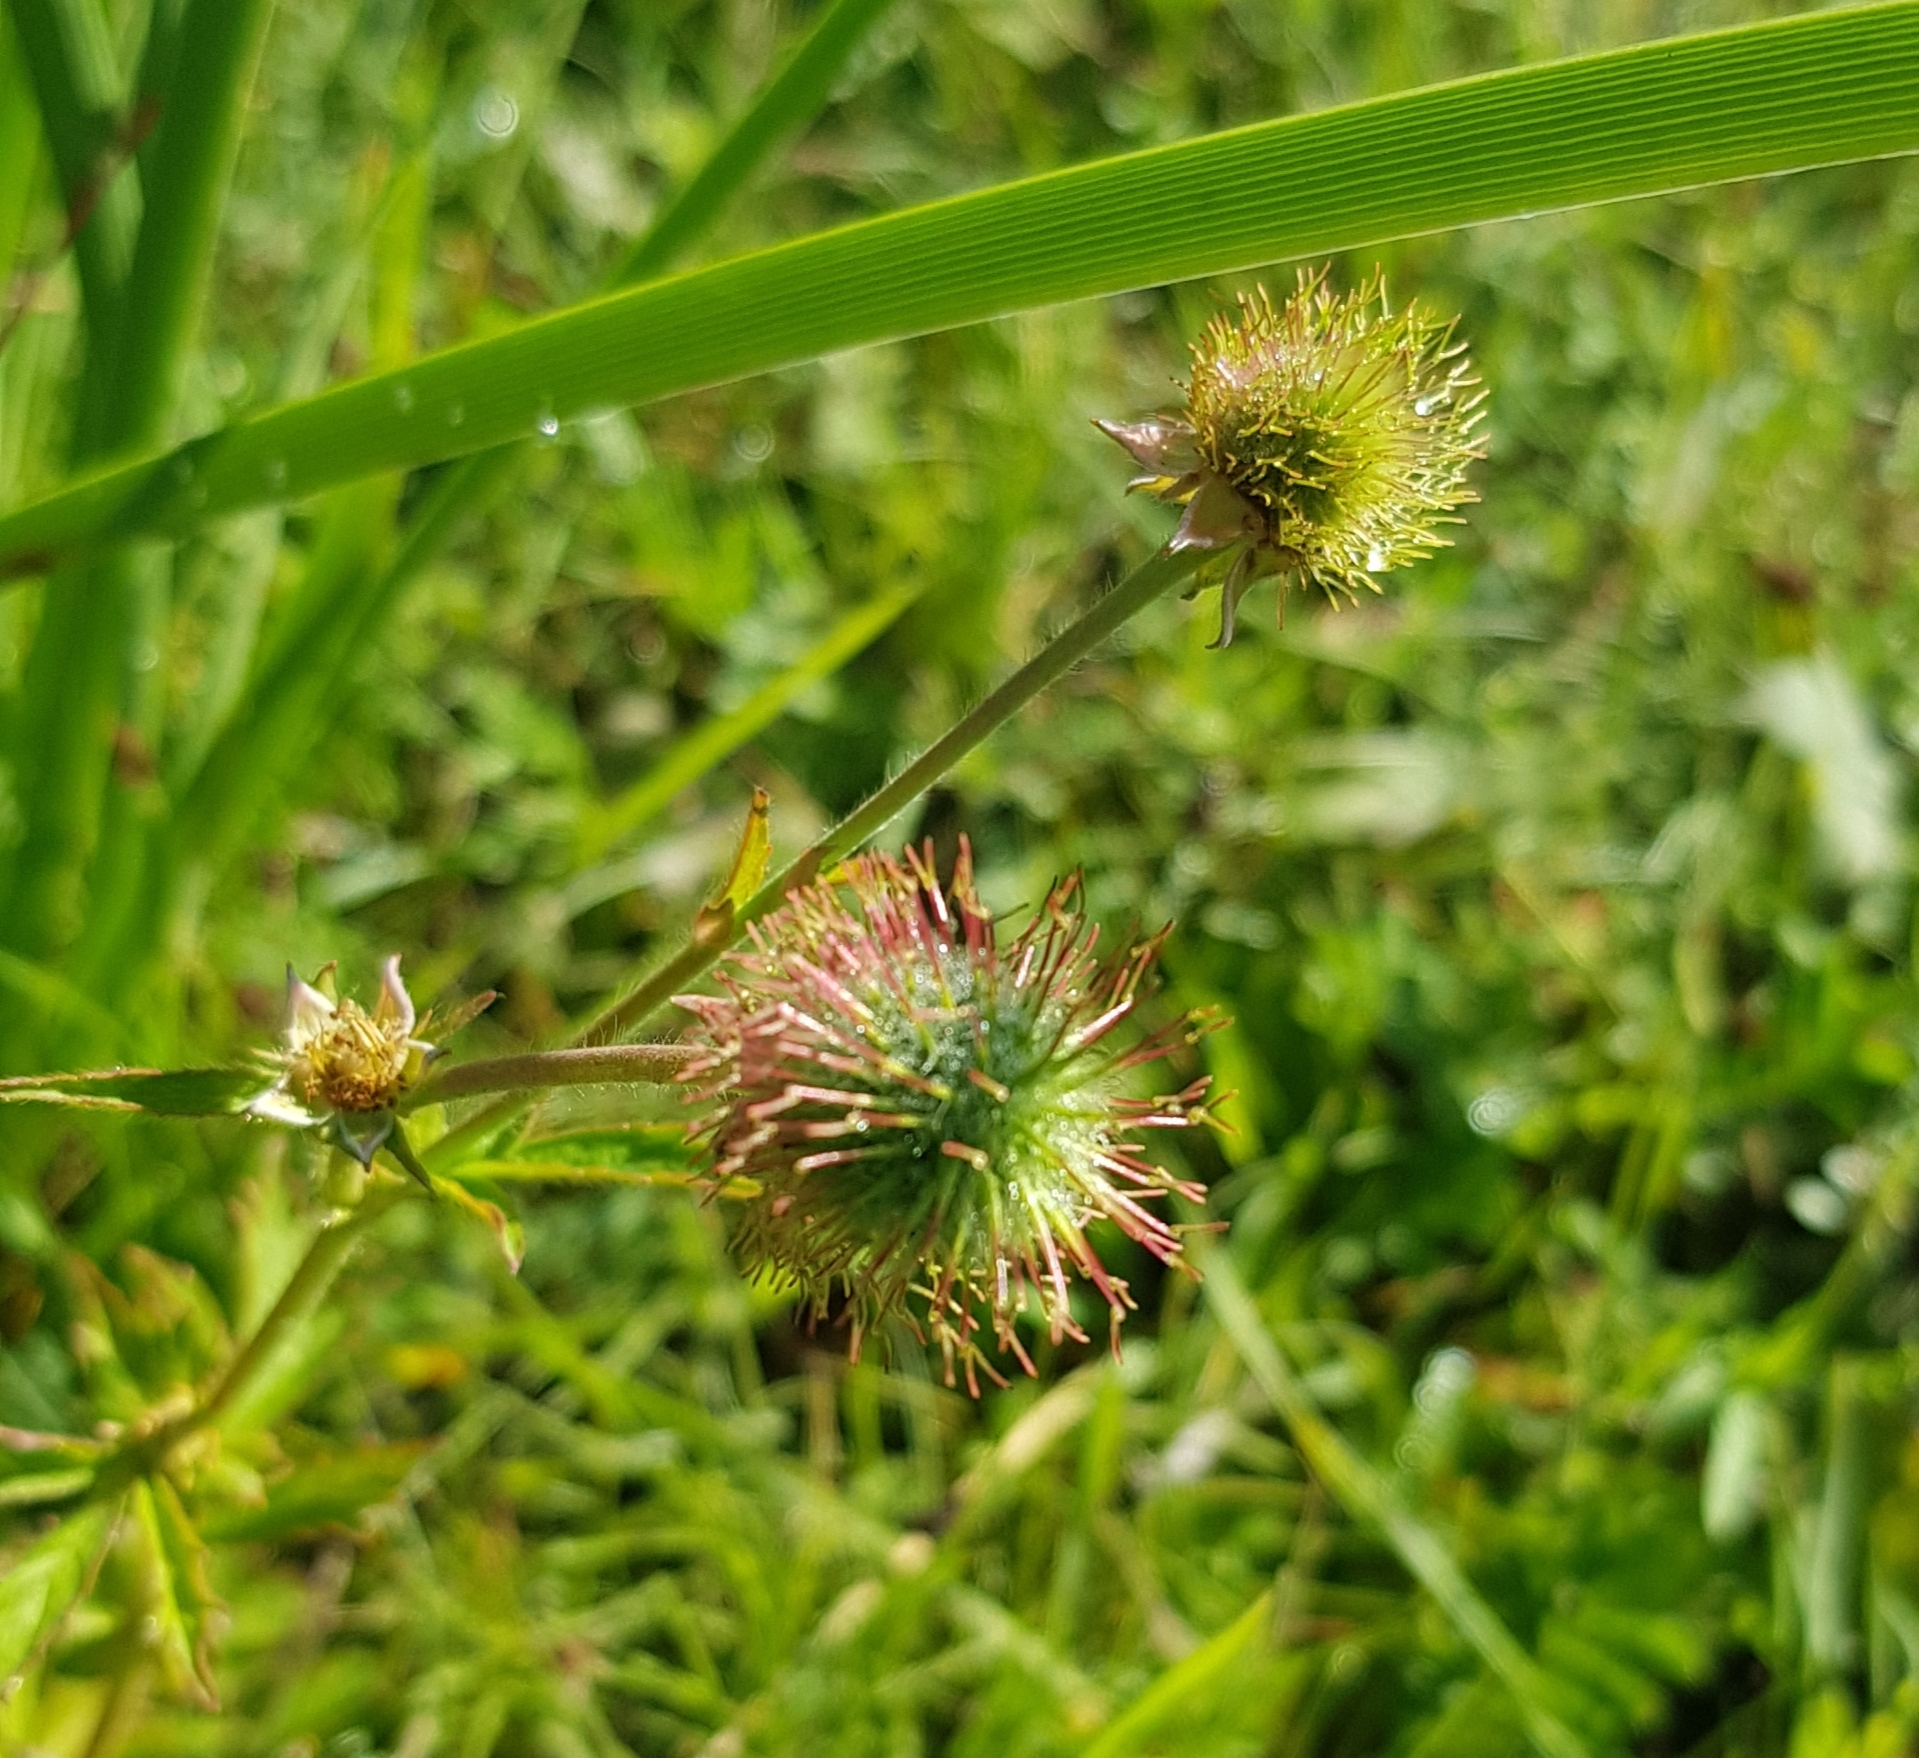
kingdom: Plantae
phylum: Tracheophyta
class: Magnoliopsida
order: Rosales
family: Rosaceae
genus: Geum
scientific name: Geum aleppicum
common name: Yellow avens
